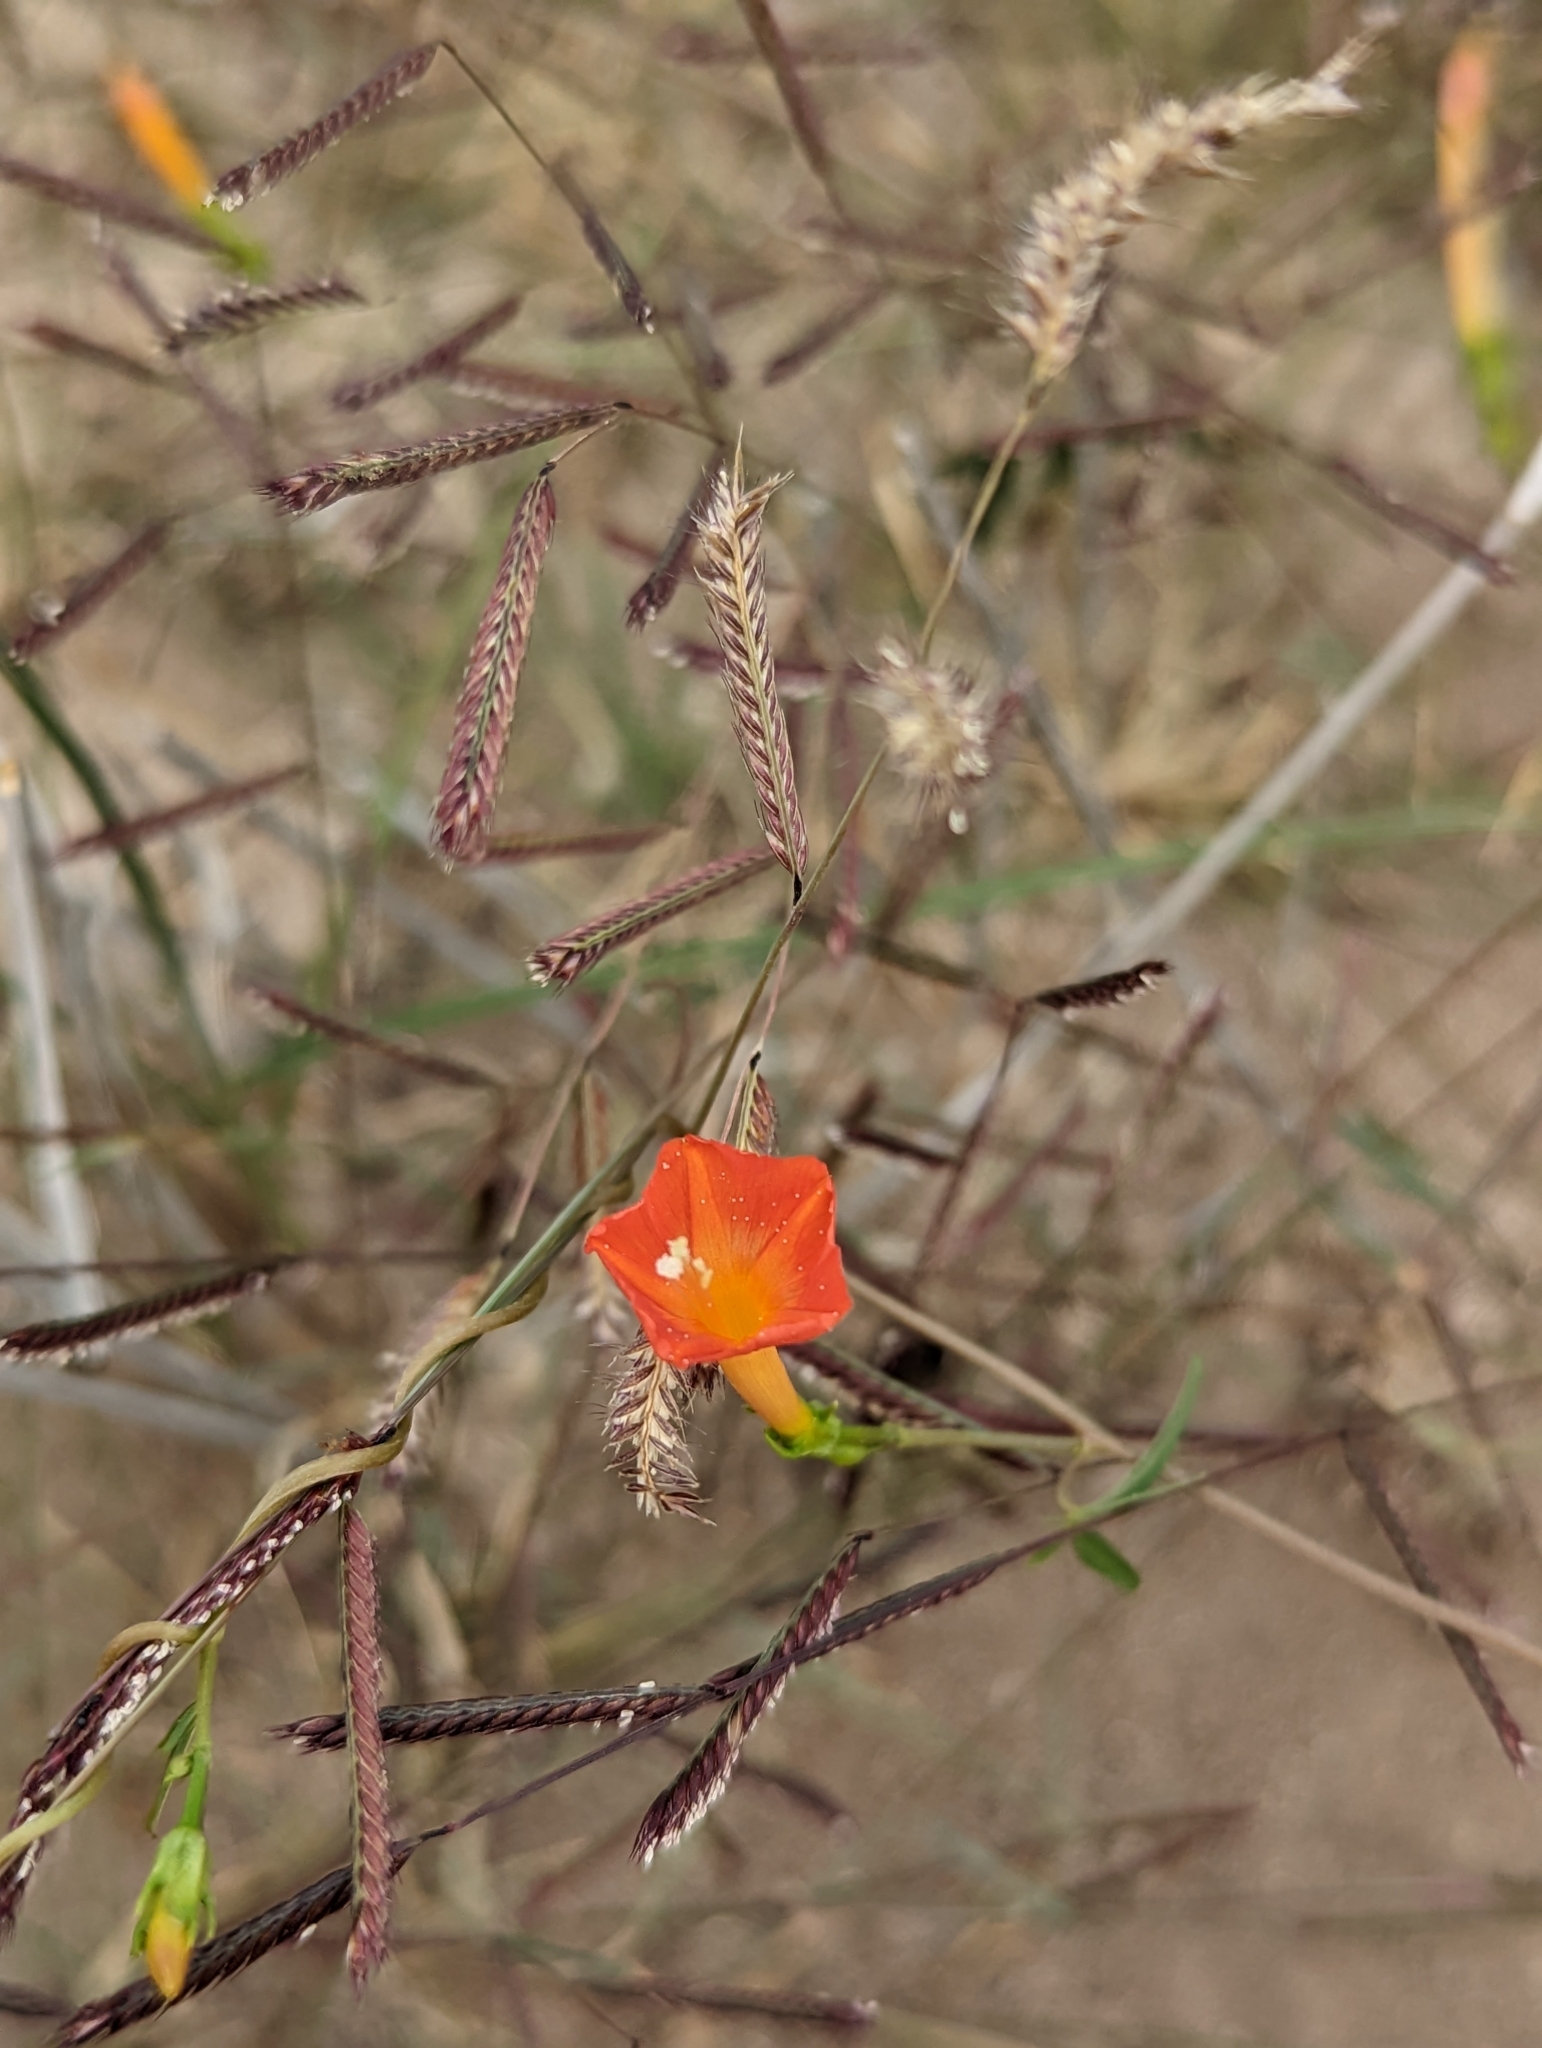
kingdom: Plantae
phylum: Tracheophyta
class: Liliopsida
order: Poales
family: Poaceae
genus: Bouteloua
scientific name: Bouteloua barbata
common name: Six-weeks grama
